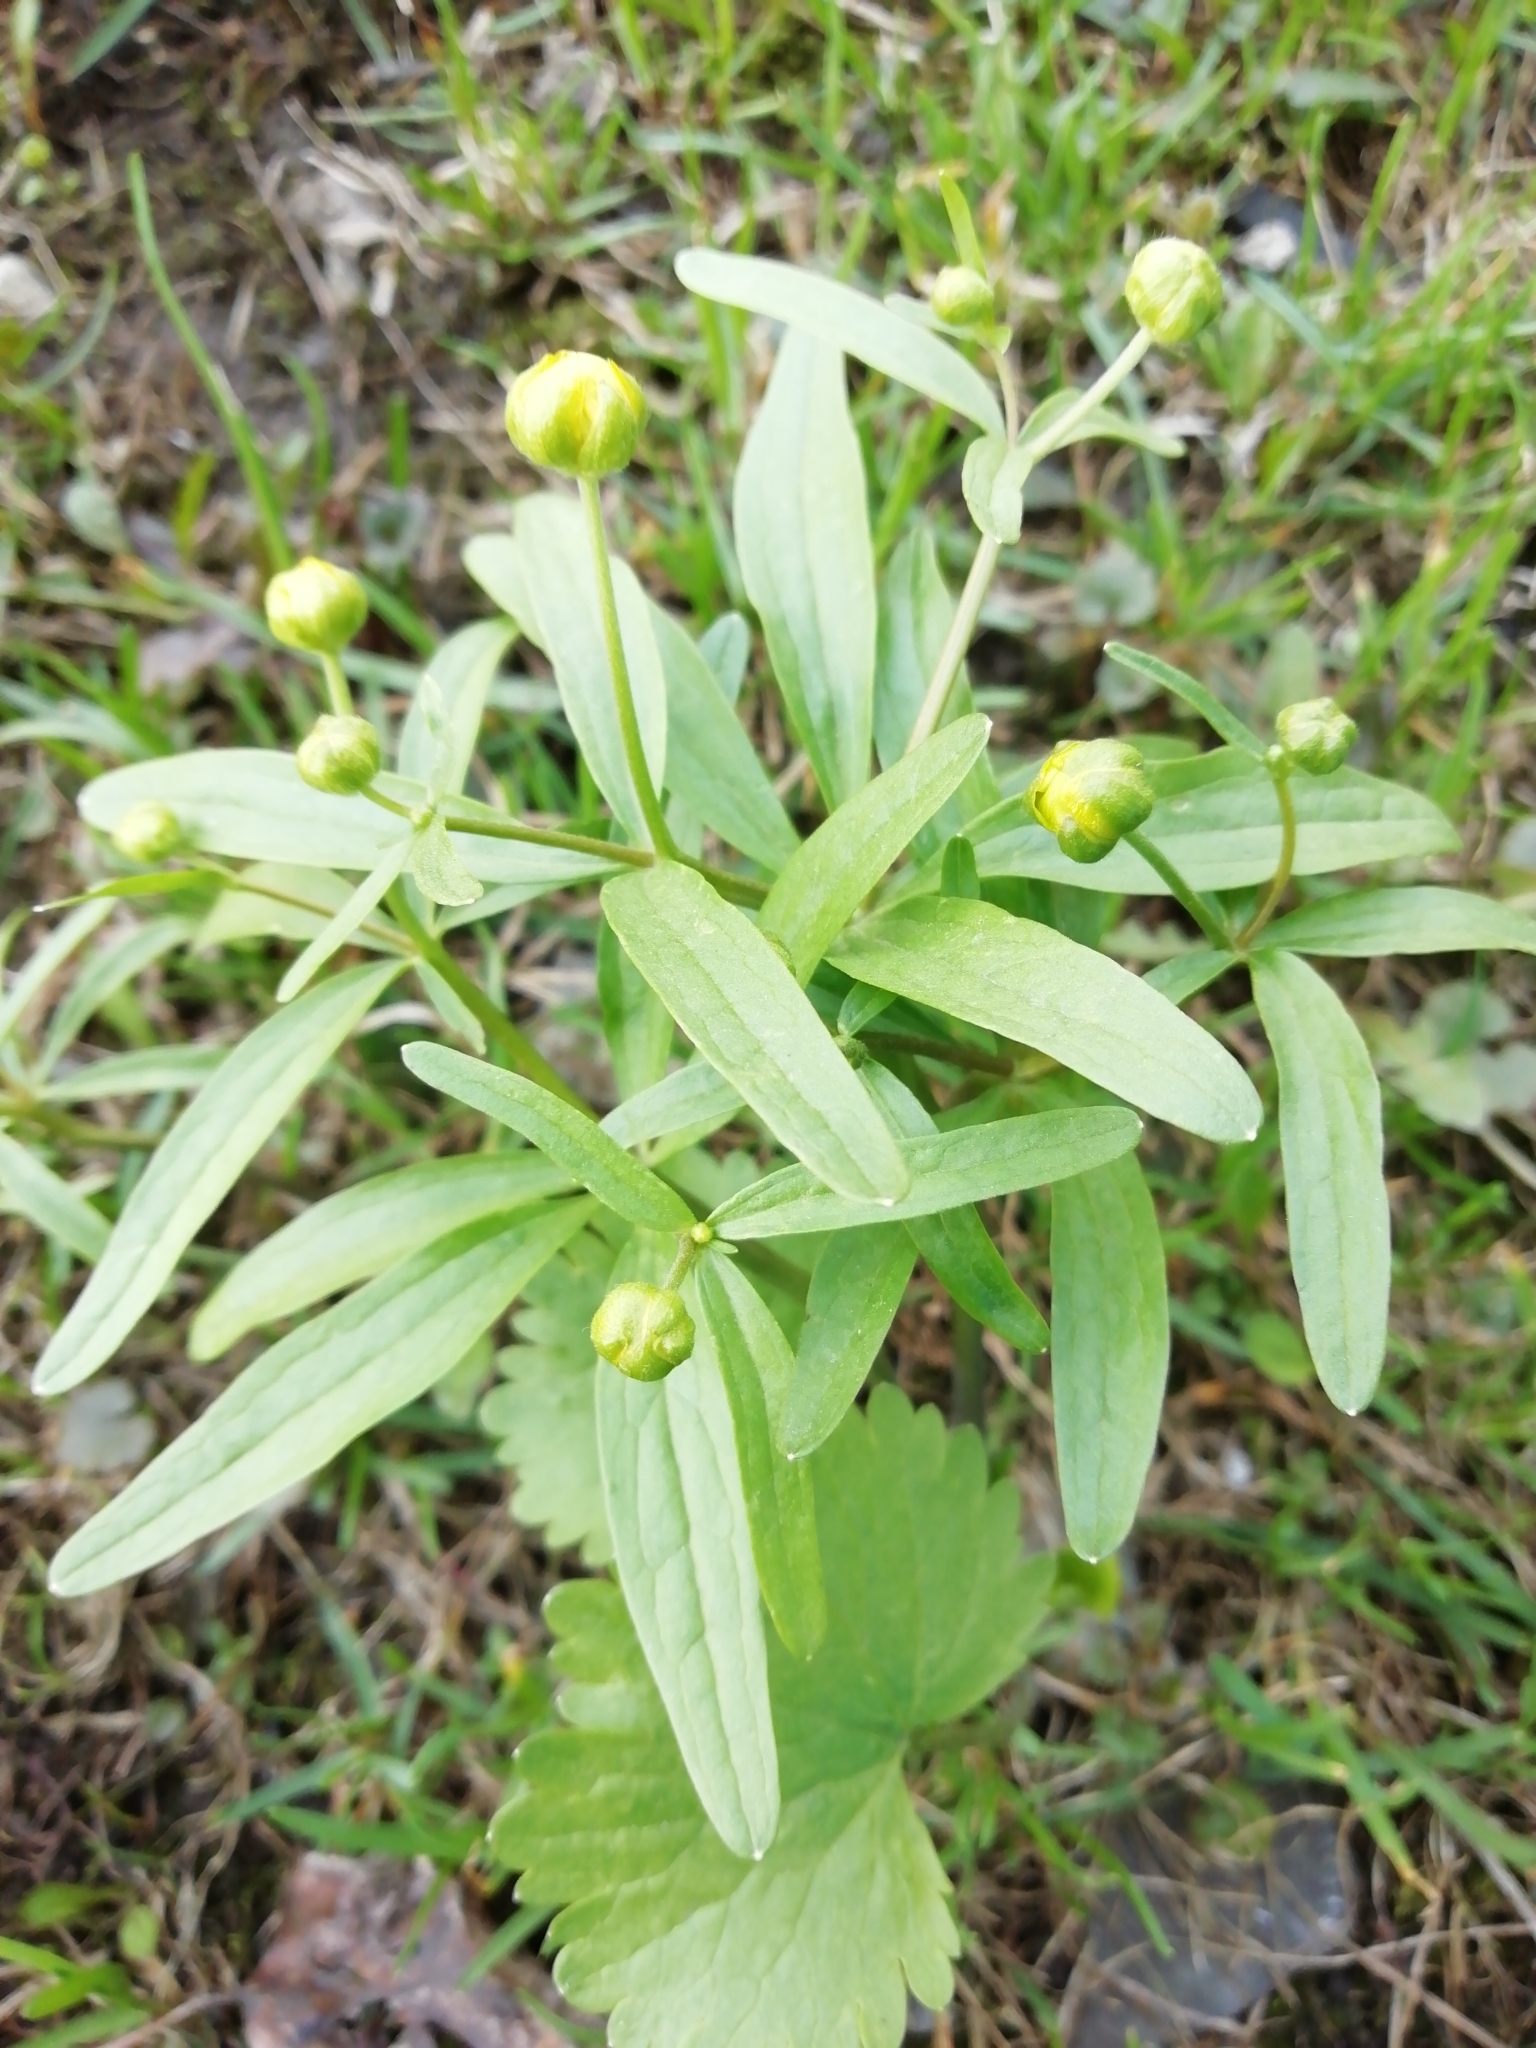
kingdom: Plantae
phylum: Tracheophyta
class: Magnoliopsida
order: Ranunculales
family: Ranunculaceae
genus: Ranunculus
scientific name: Ranunculus monophyllus
